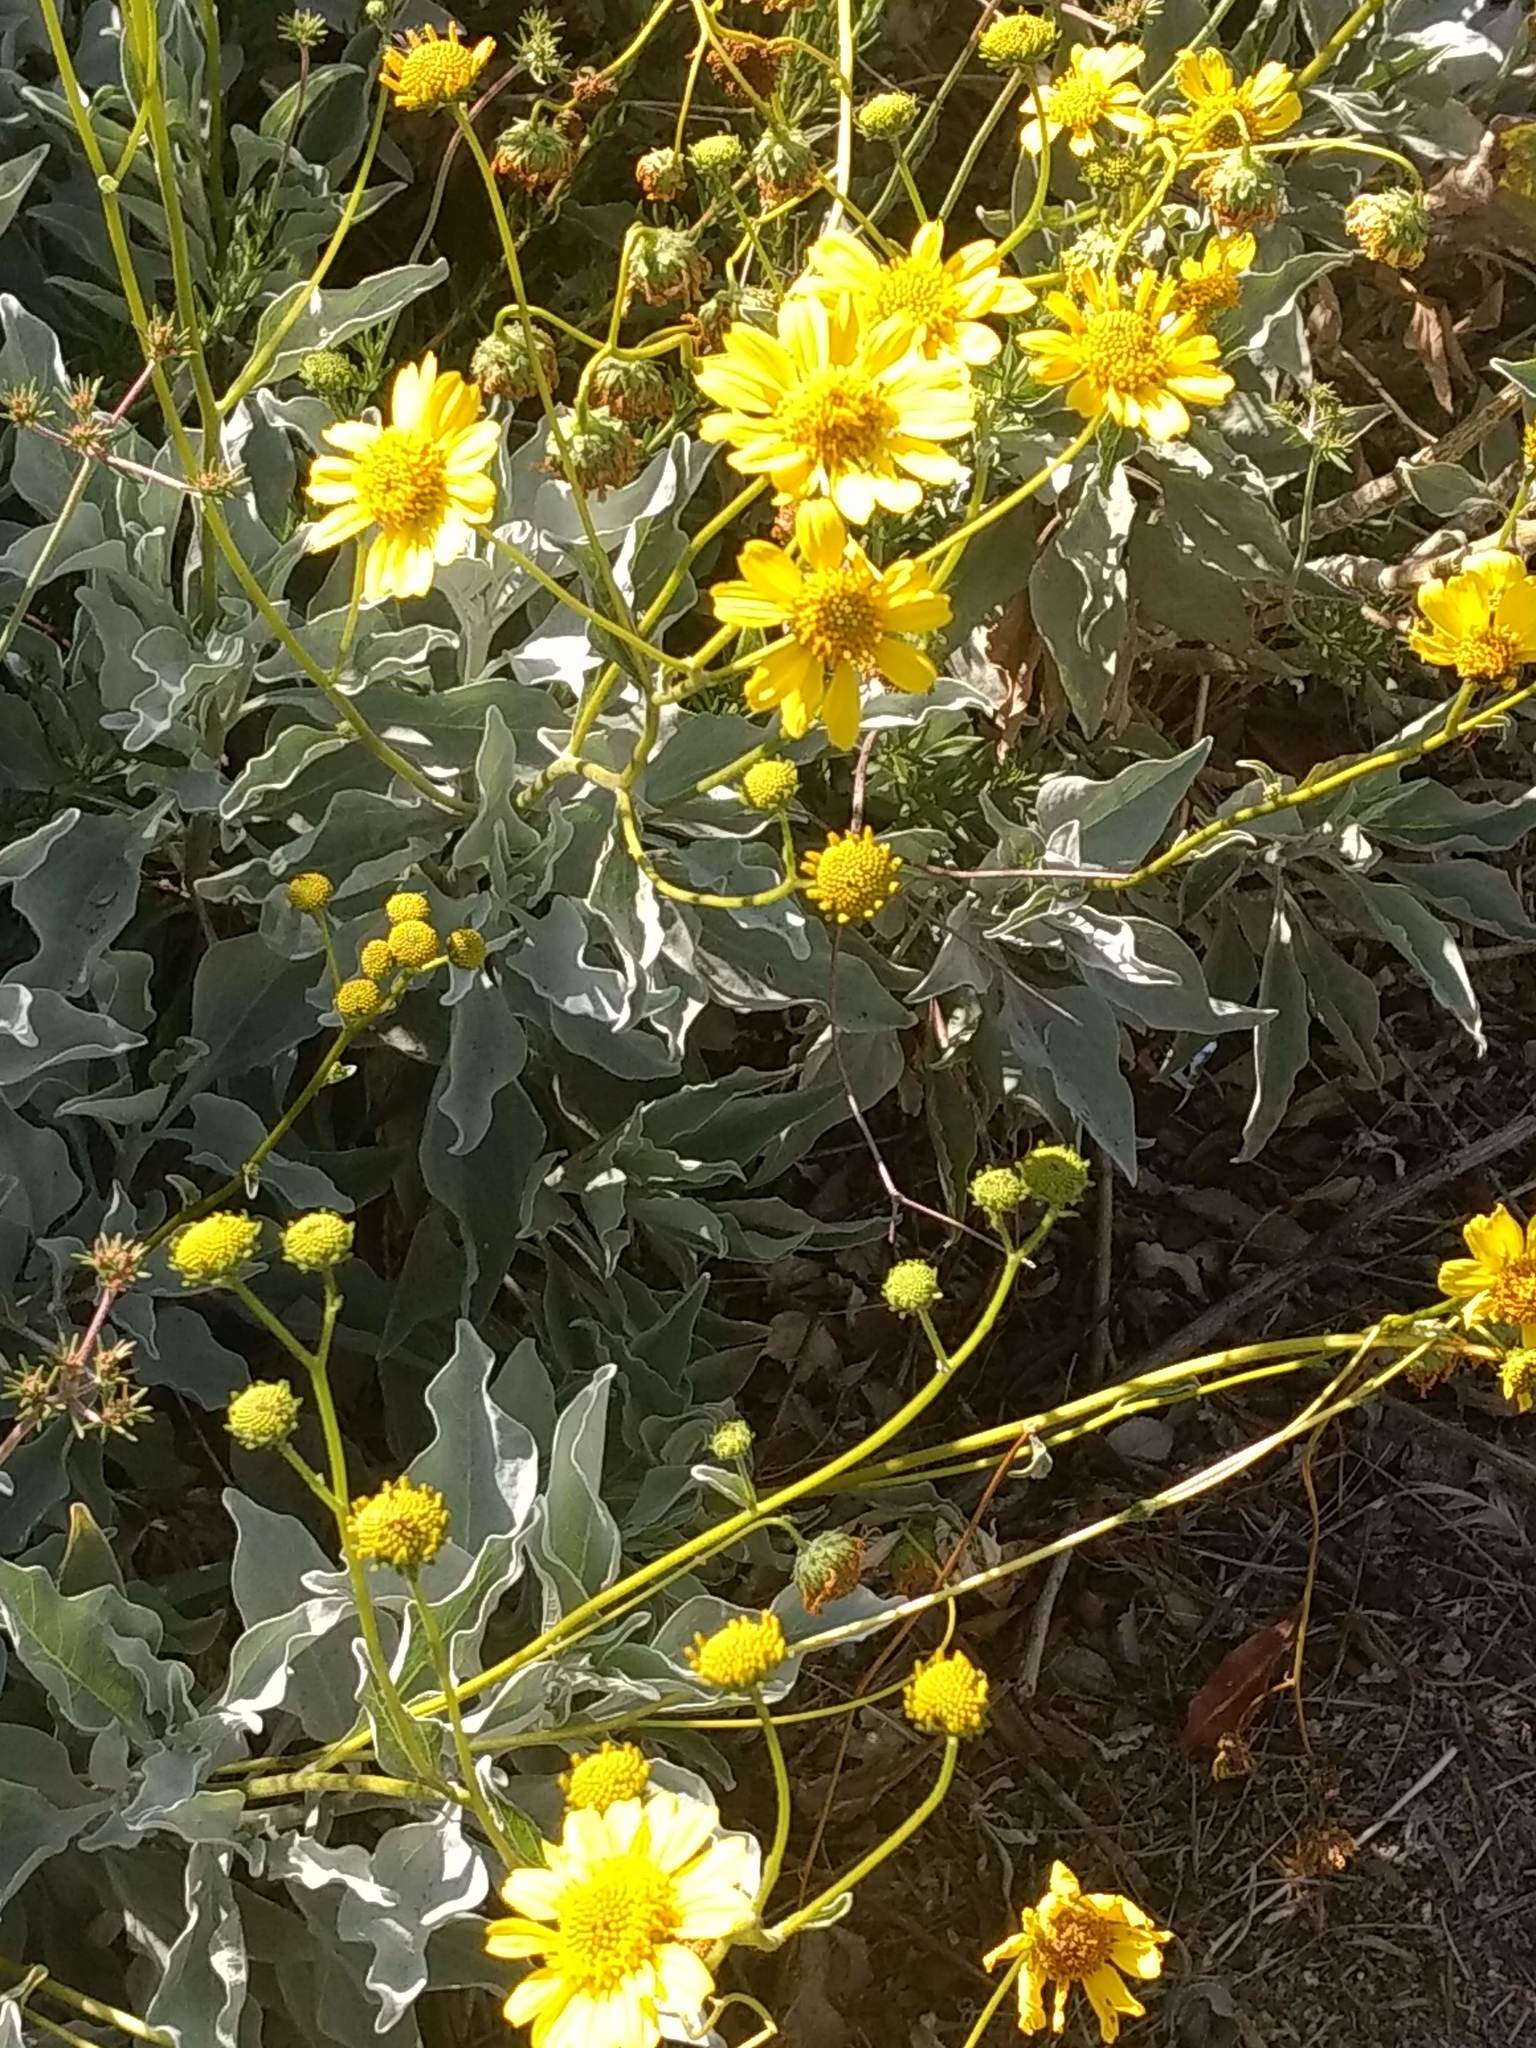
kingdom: Plantae
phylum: Tracheophyta
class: Magnoliopsida
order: Asterales
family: Asteraceae
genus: Encelia
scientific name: Encelia farinosa
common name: Brittlebush
